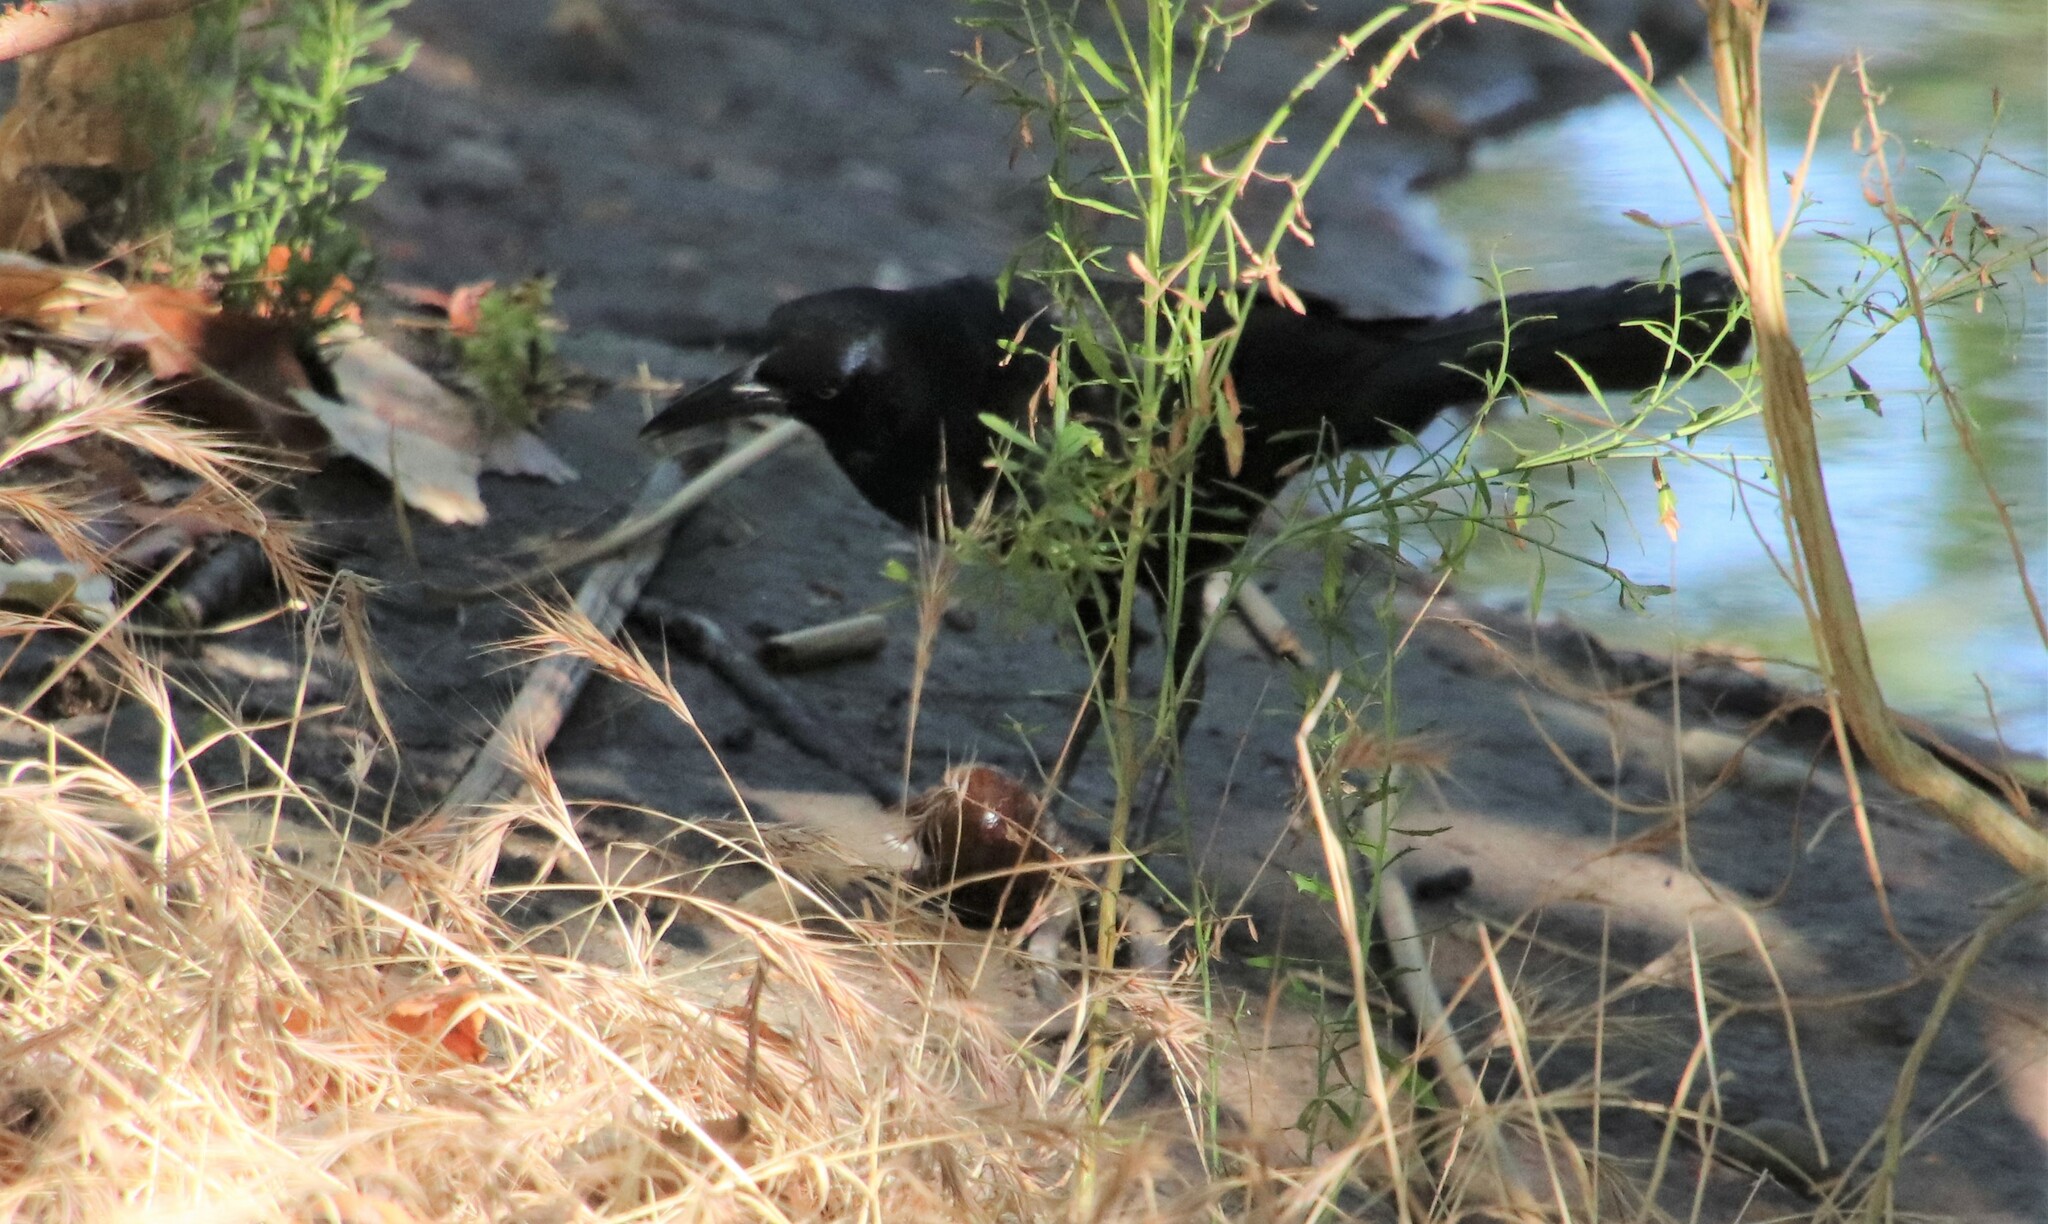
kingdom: Animalia
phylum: Chordata
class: Aves
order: Passeriformes
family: Icteridae
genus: Quiscalus
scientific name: Quiscalus mexicanus
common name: Great-tailed grackle
